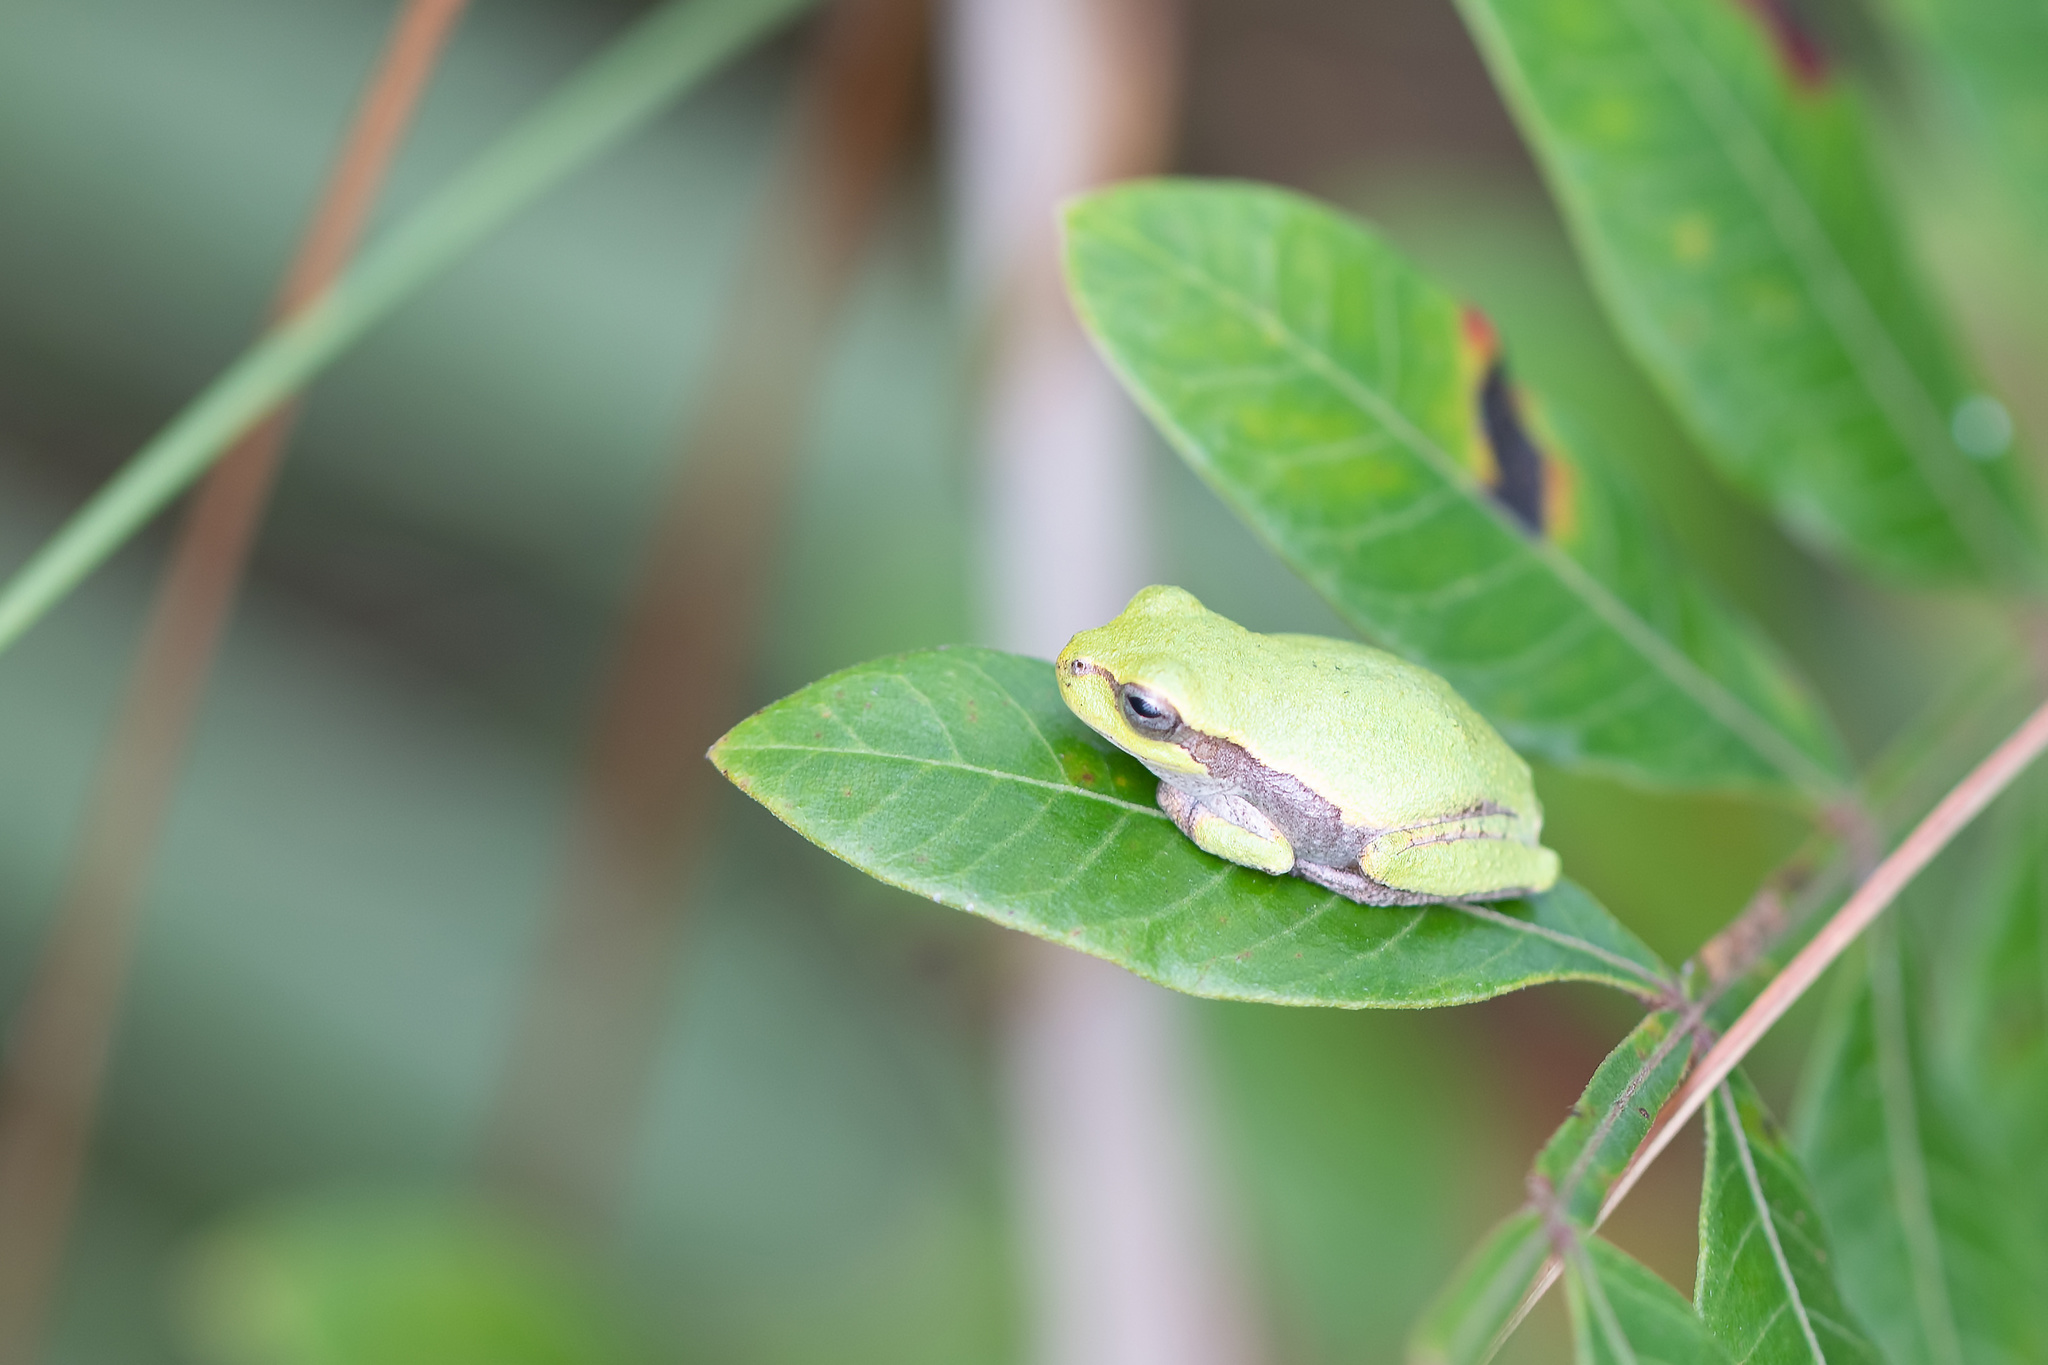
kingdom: Animalia
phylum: Chordata
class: Amphibia
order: Anura
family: Hylidae
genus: Hyla
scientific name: Hyla femoralis
